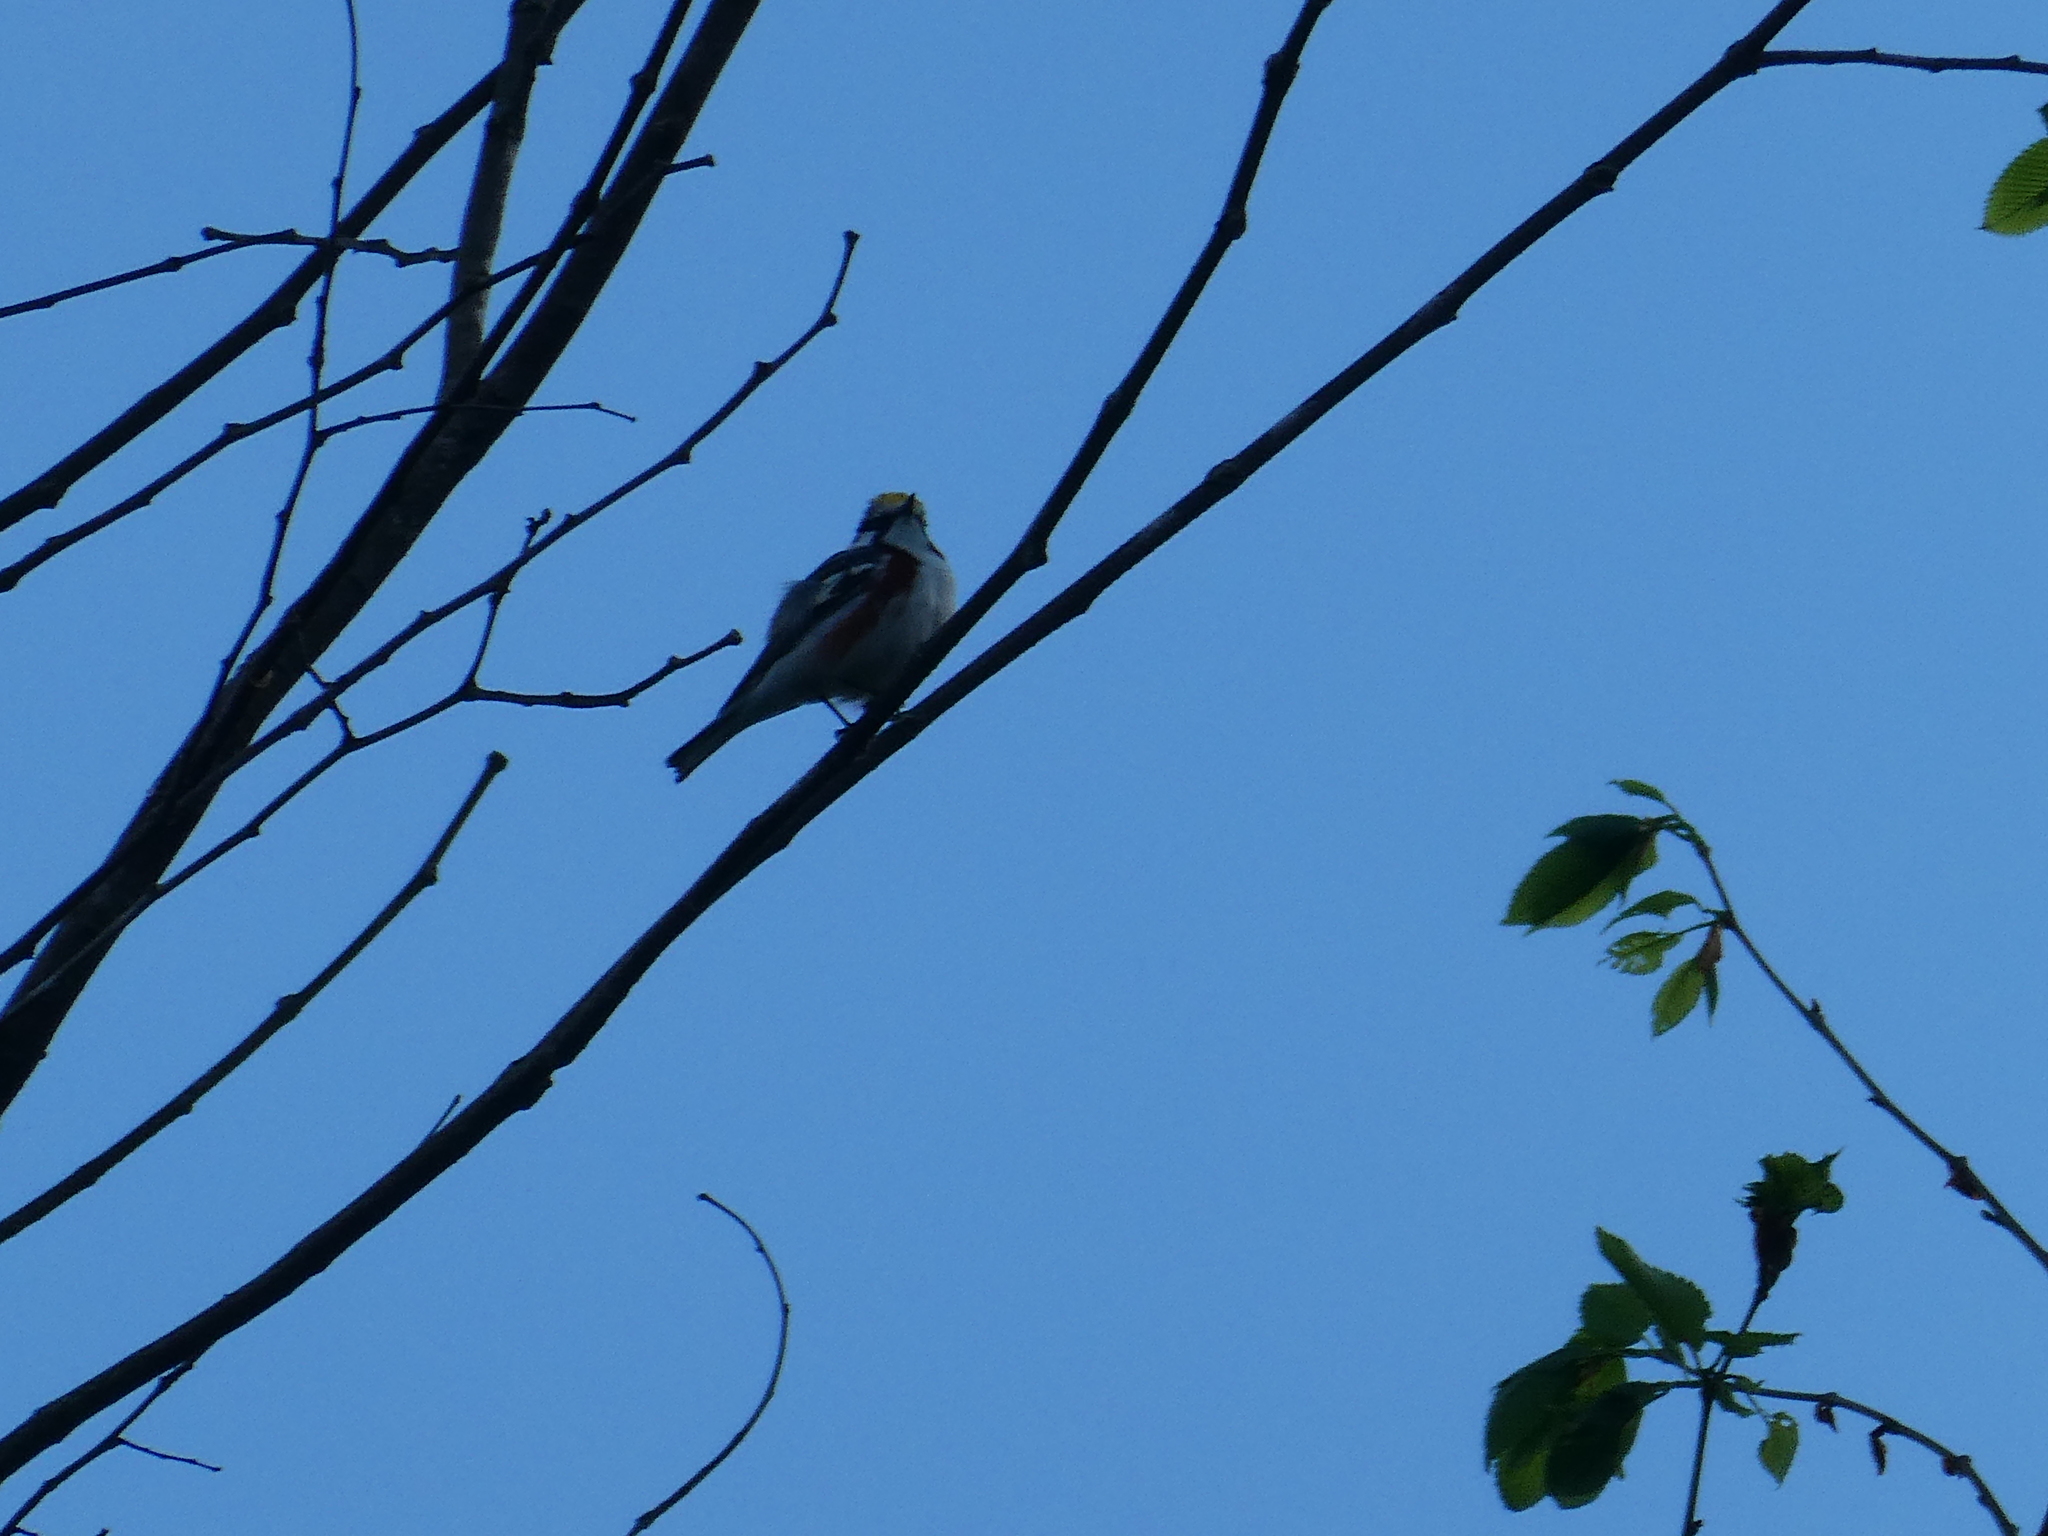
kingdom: Animalia
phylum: Chordata
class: Aves
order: Passeriformes
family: Parulidae
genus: Setophaga
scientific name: Setophaga pensylvanica
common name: Chestnut-sided warbler
